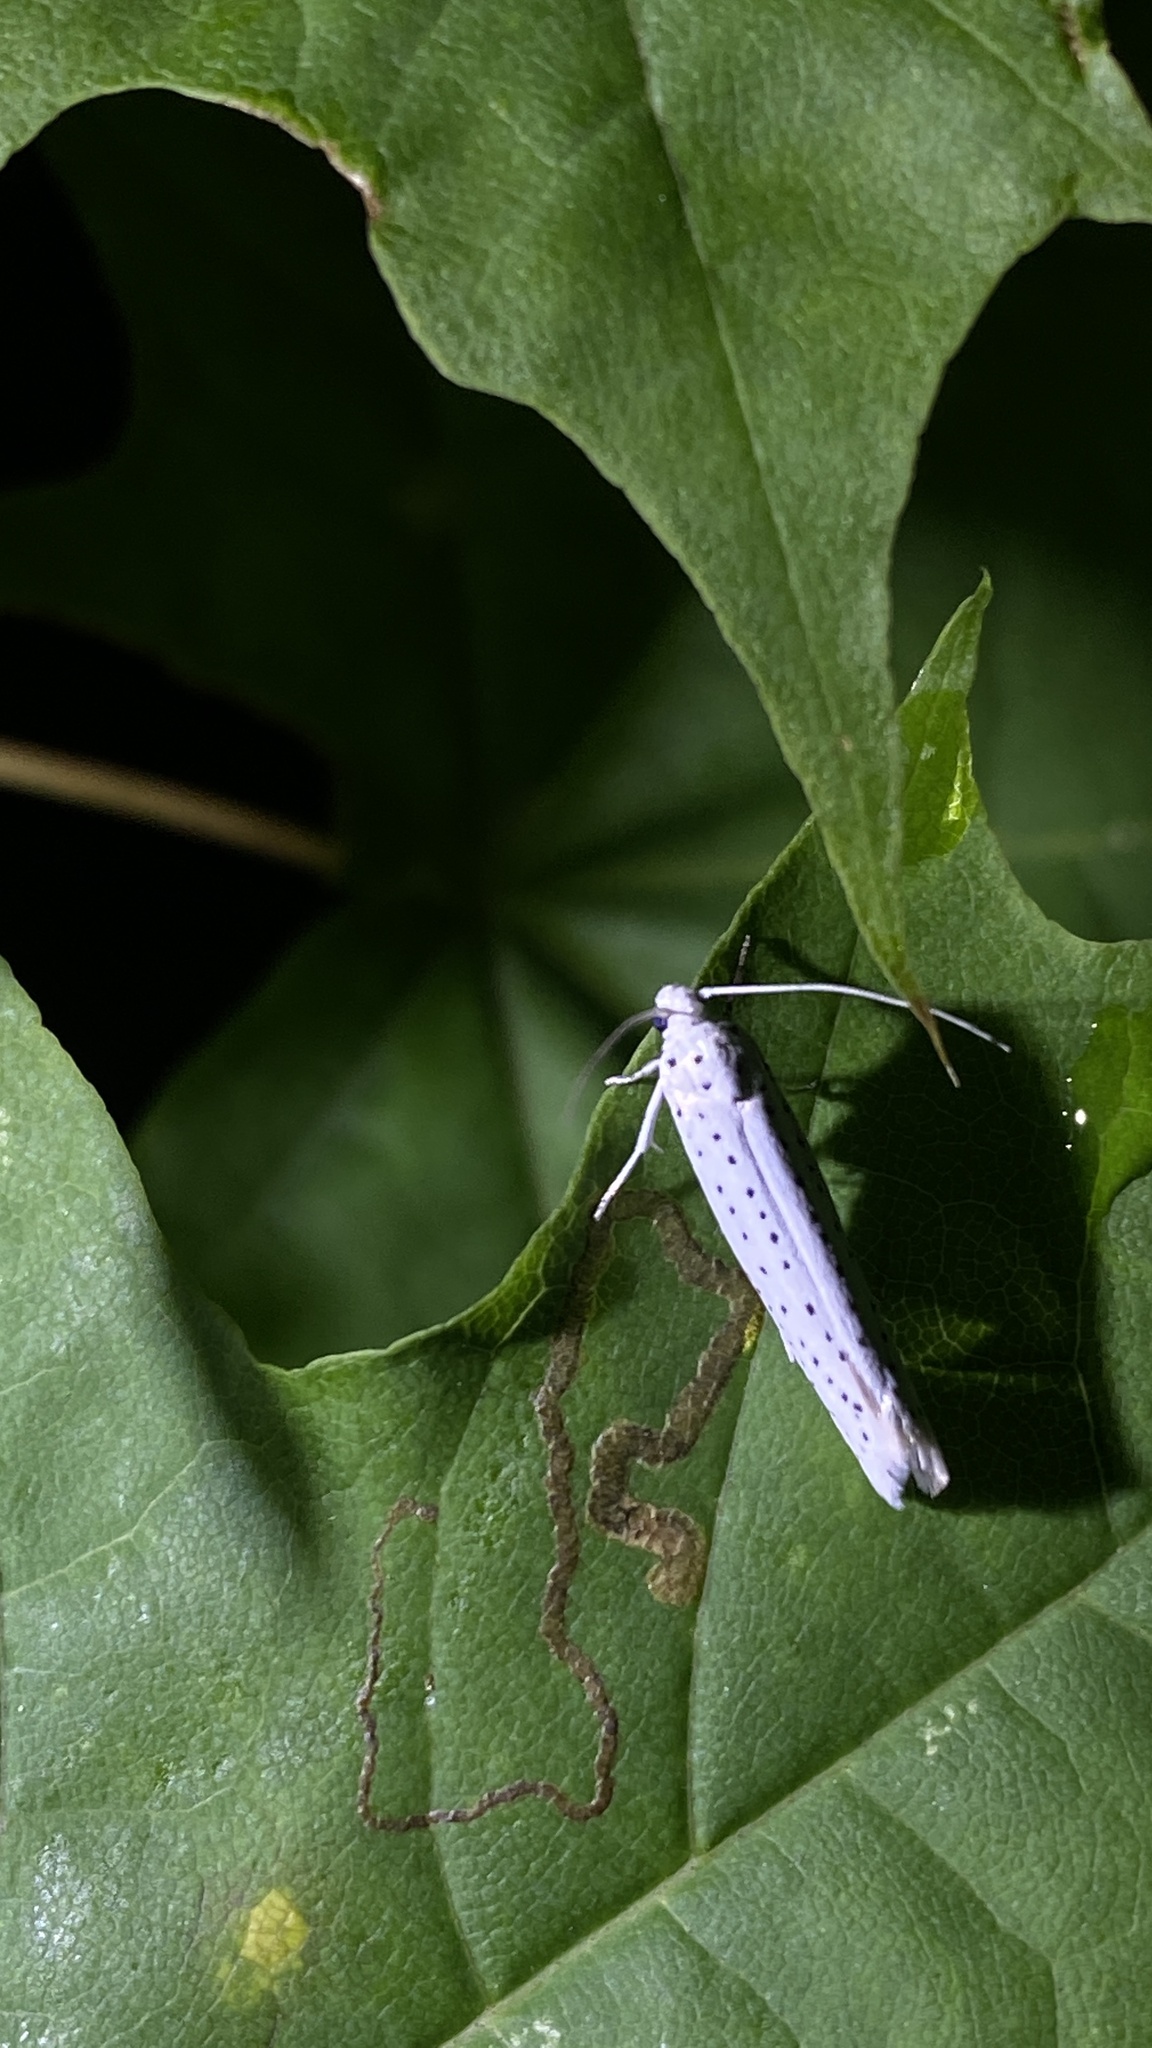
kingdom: Animalia
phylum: Arthropoda
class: Insecta
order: Lepidoptera
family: Yponomeutidae
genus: Yponomeuta
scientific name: Yponomeuta evonymella
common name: Bird-cherry ermine
